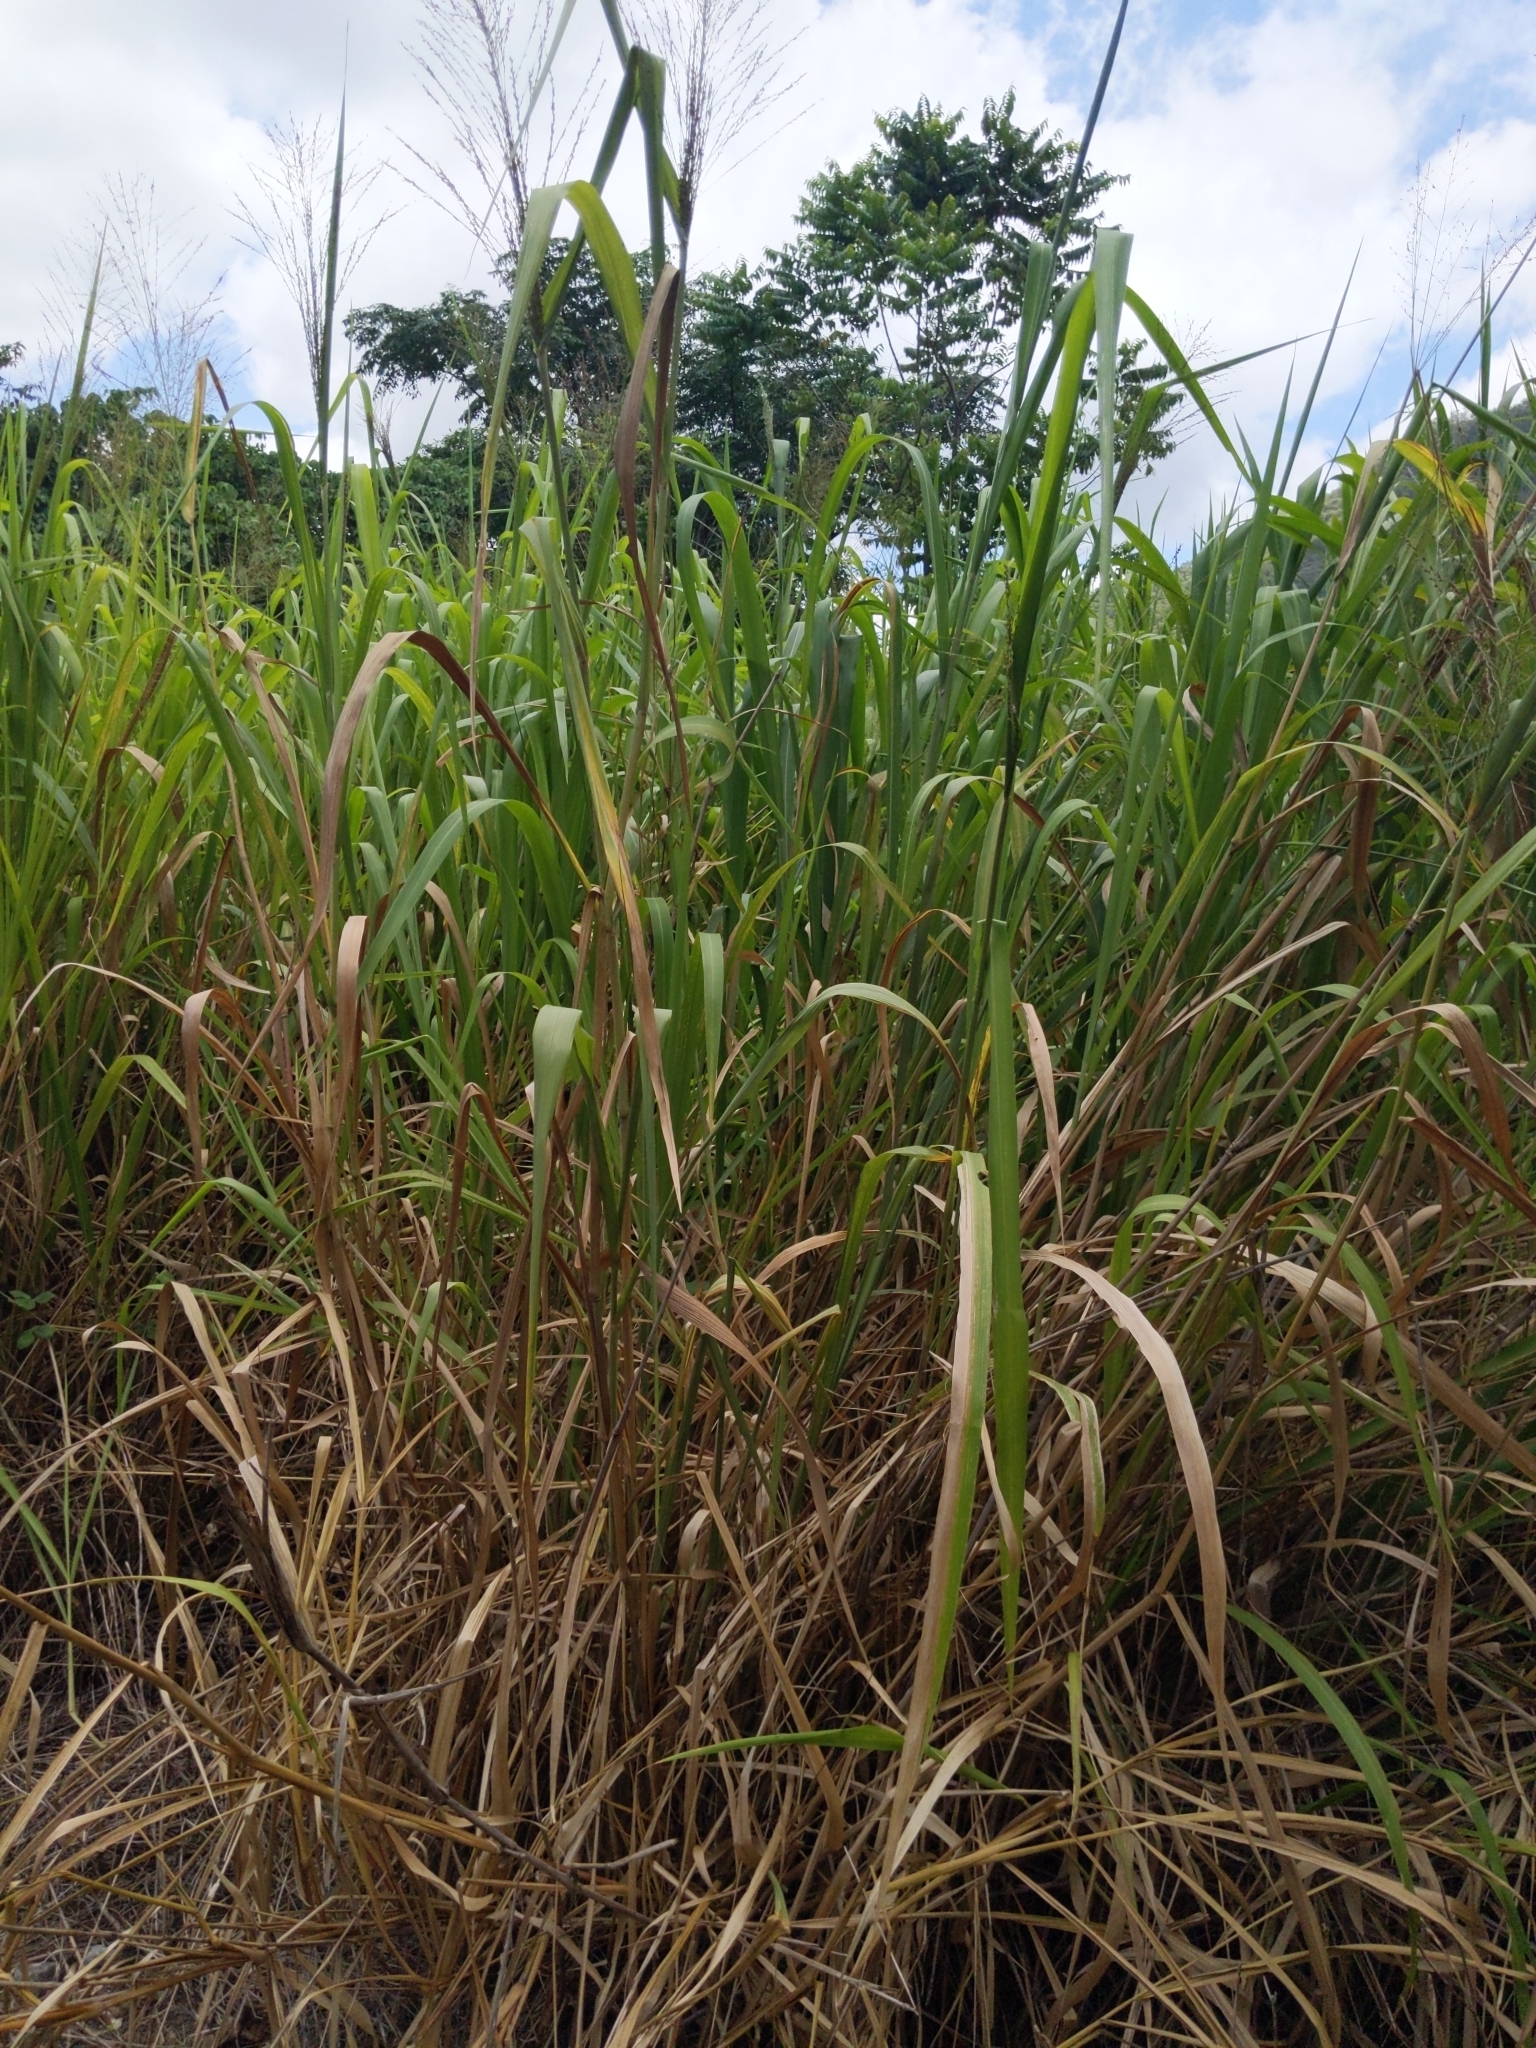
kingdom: Plantae
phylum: Tracheophyta
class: Liliopsida
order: Poales
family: Poaceae
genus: Megathyrsus
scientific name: Megathyrsus maximus
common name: Guineagrass
